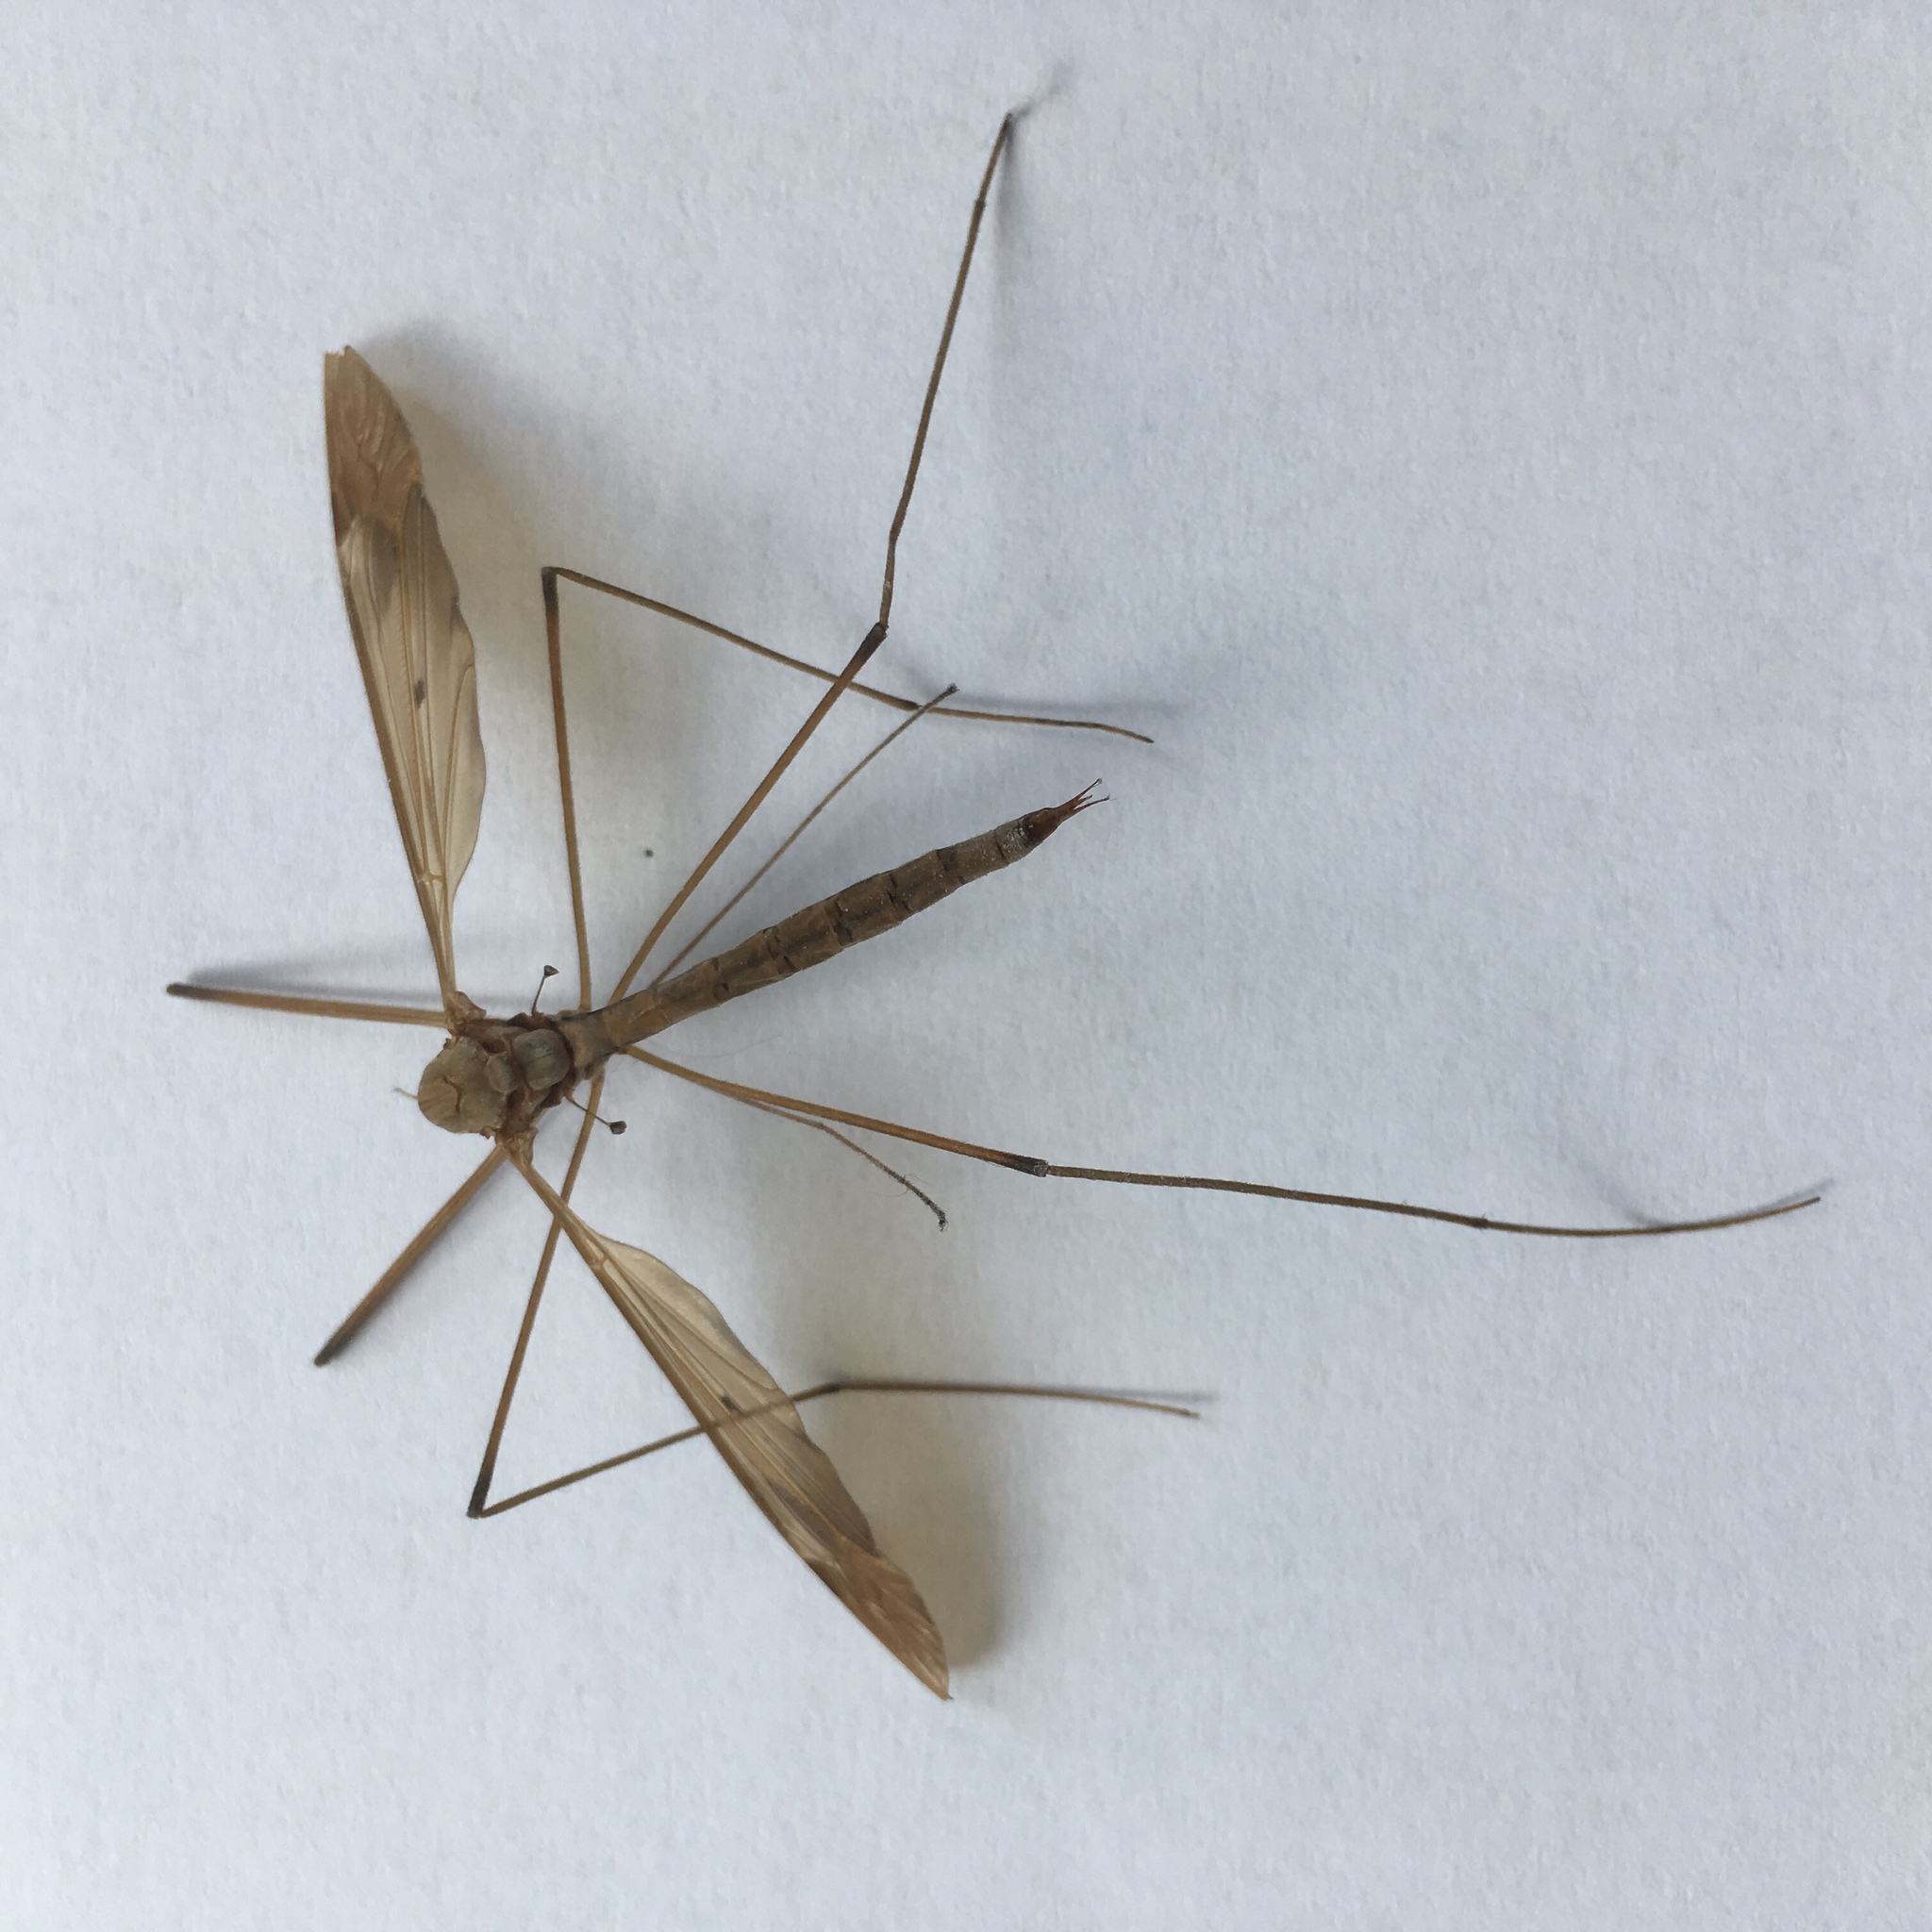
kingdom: Animalia
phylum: Arthropoda
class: Insecta
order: Diptera
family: Tipulidae
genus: Tipula
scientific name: Tipula fulvipennis
